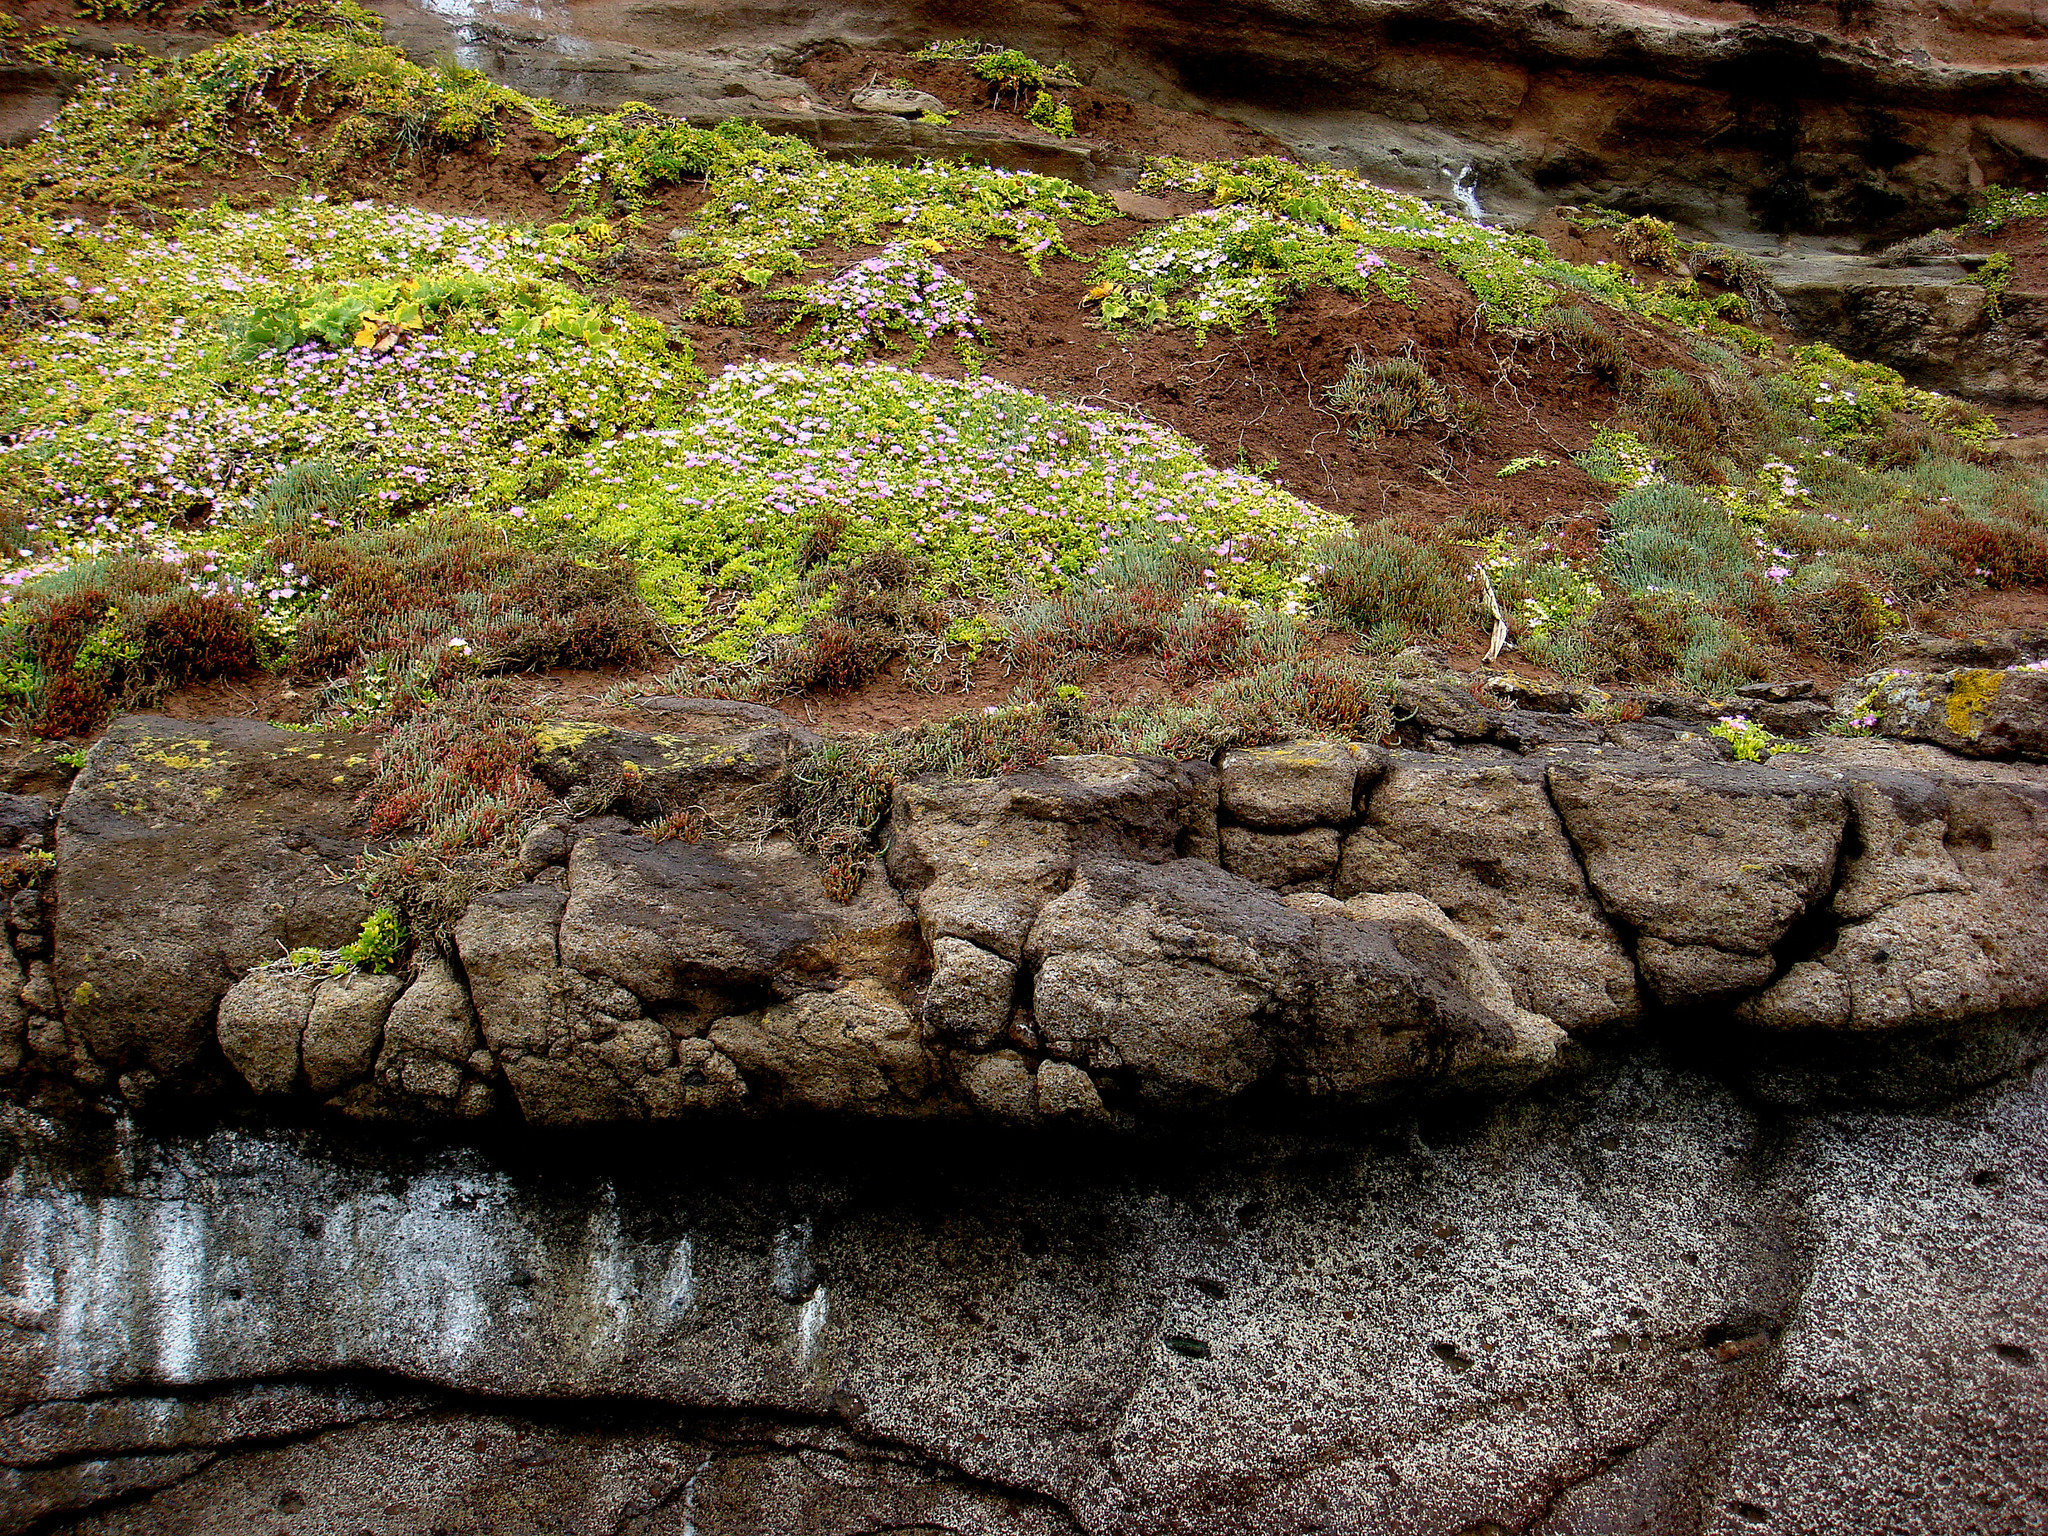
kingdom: Fungi
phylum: Ascomycota
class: Lecanoromycetes
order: Teloschistales
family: Teloschistaceae
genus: Caloplaca
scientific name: Caloplaca maculata
